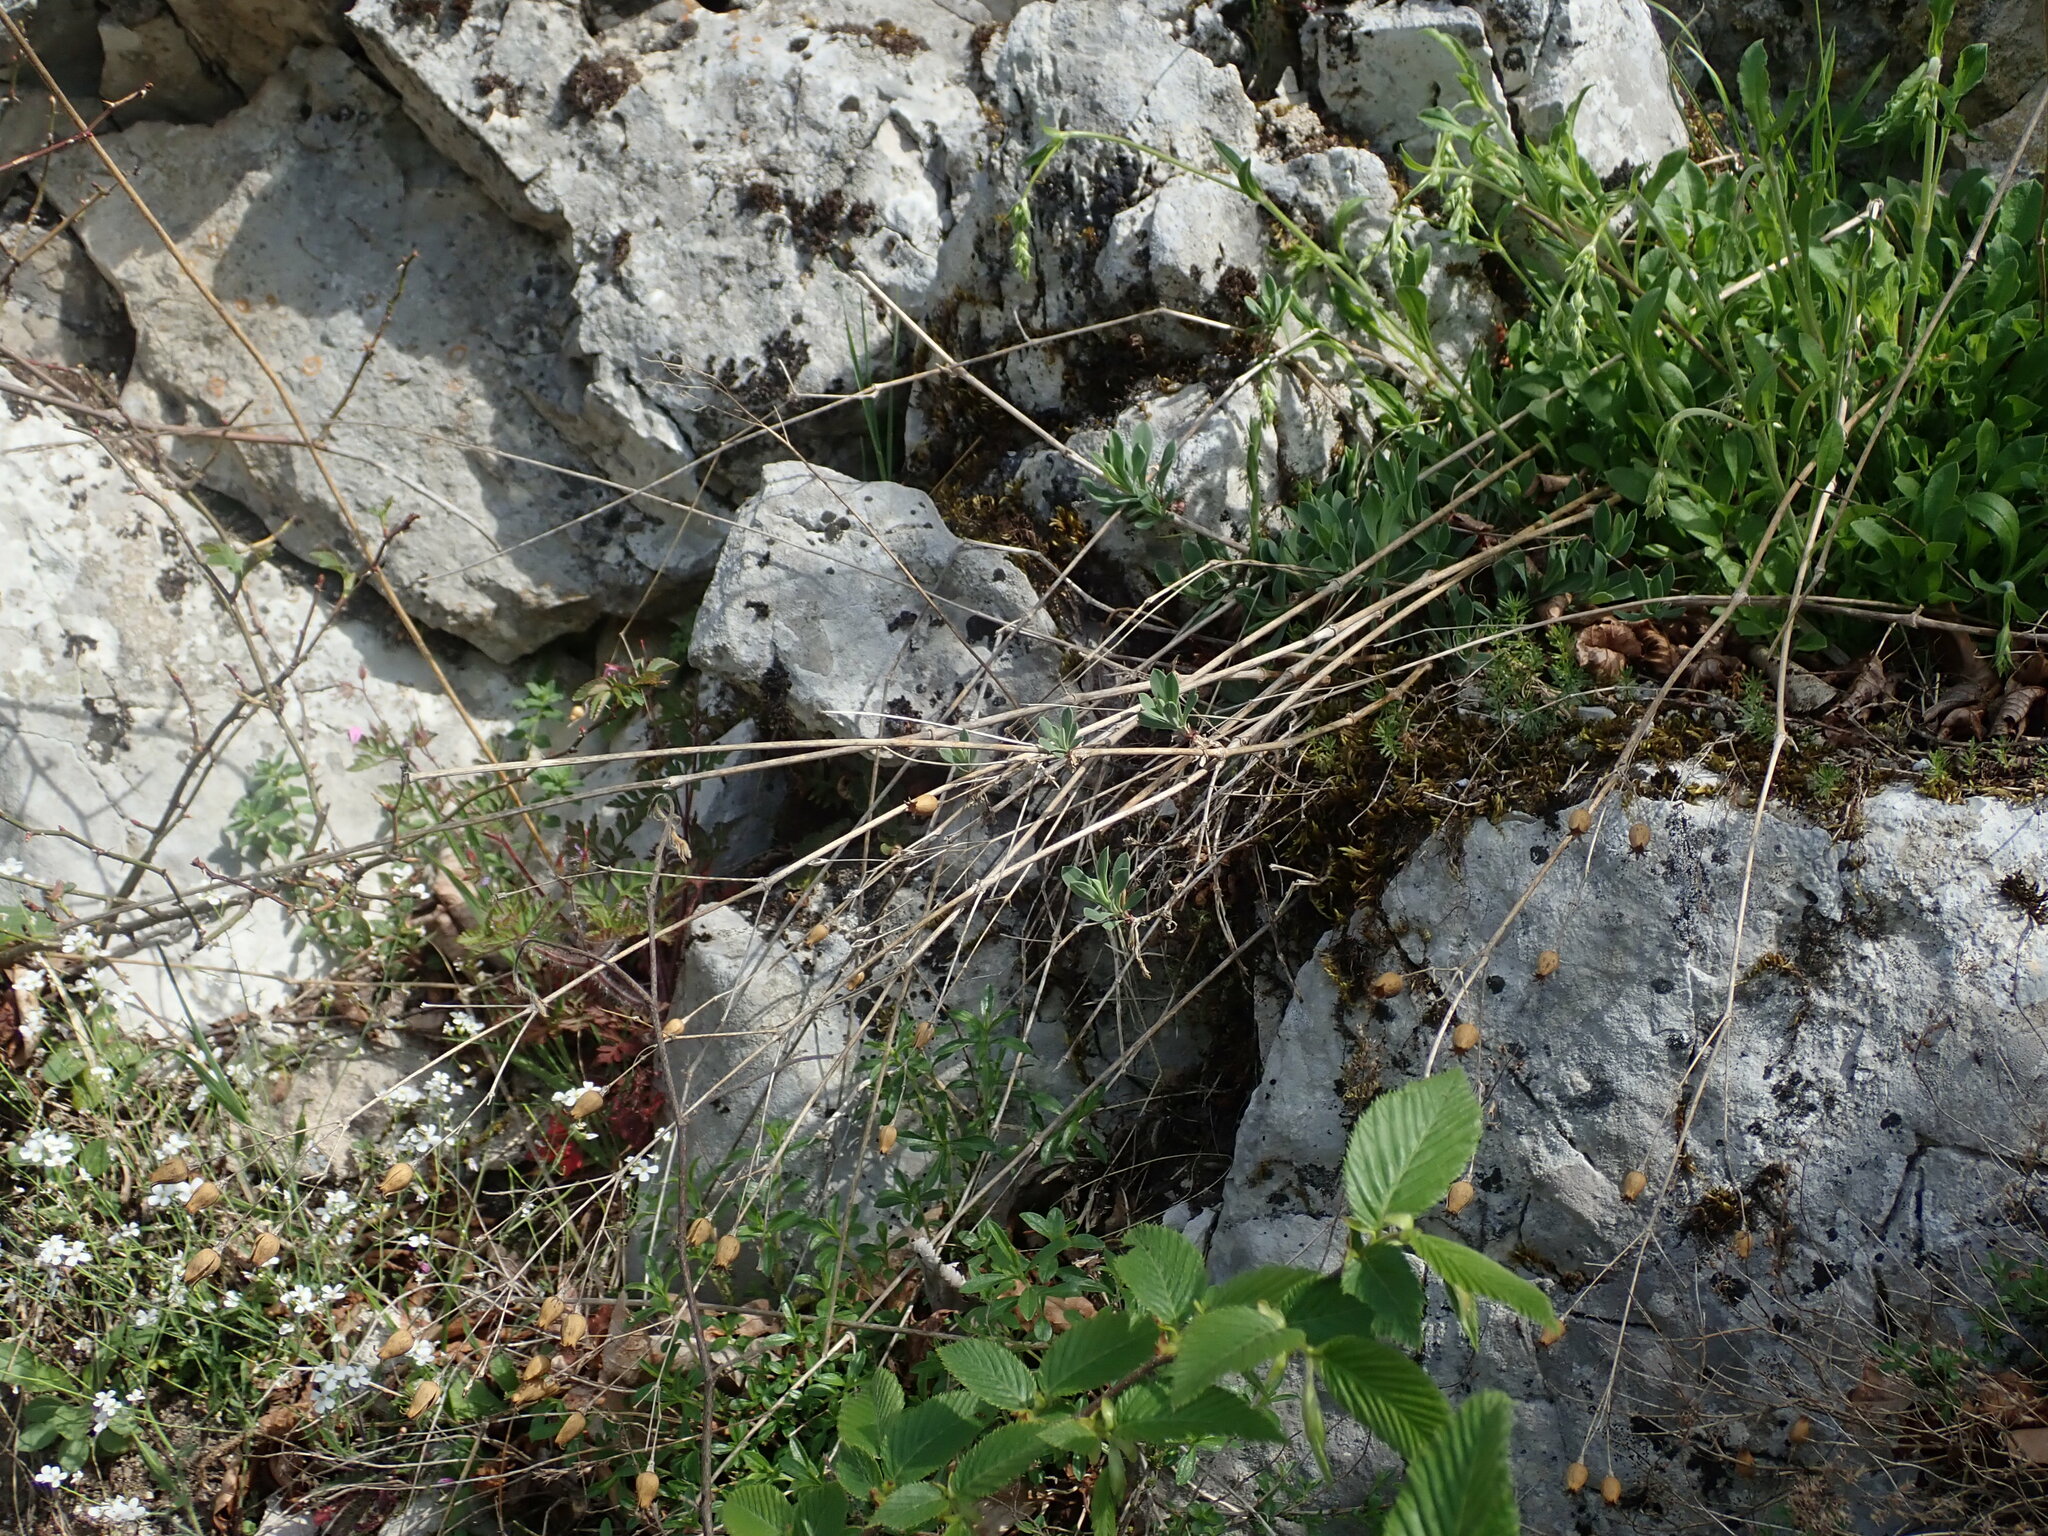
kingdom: Plantae
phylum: Tracheophyta
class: Magnoliopsida
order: Caryophyllales
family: Caryophyllaceae
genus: Silene
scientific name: Silene vulgaris
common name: Bladder campion
